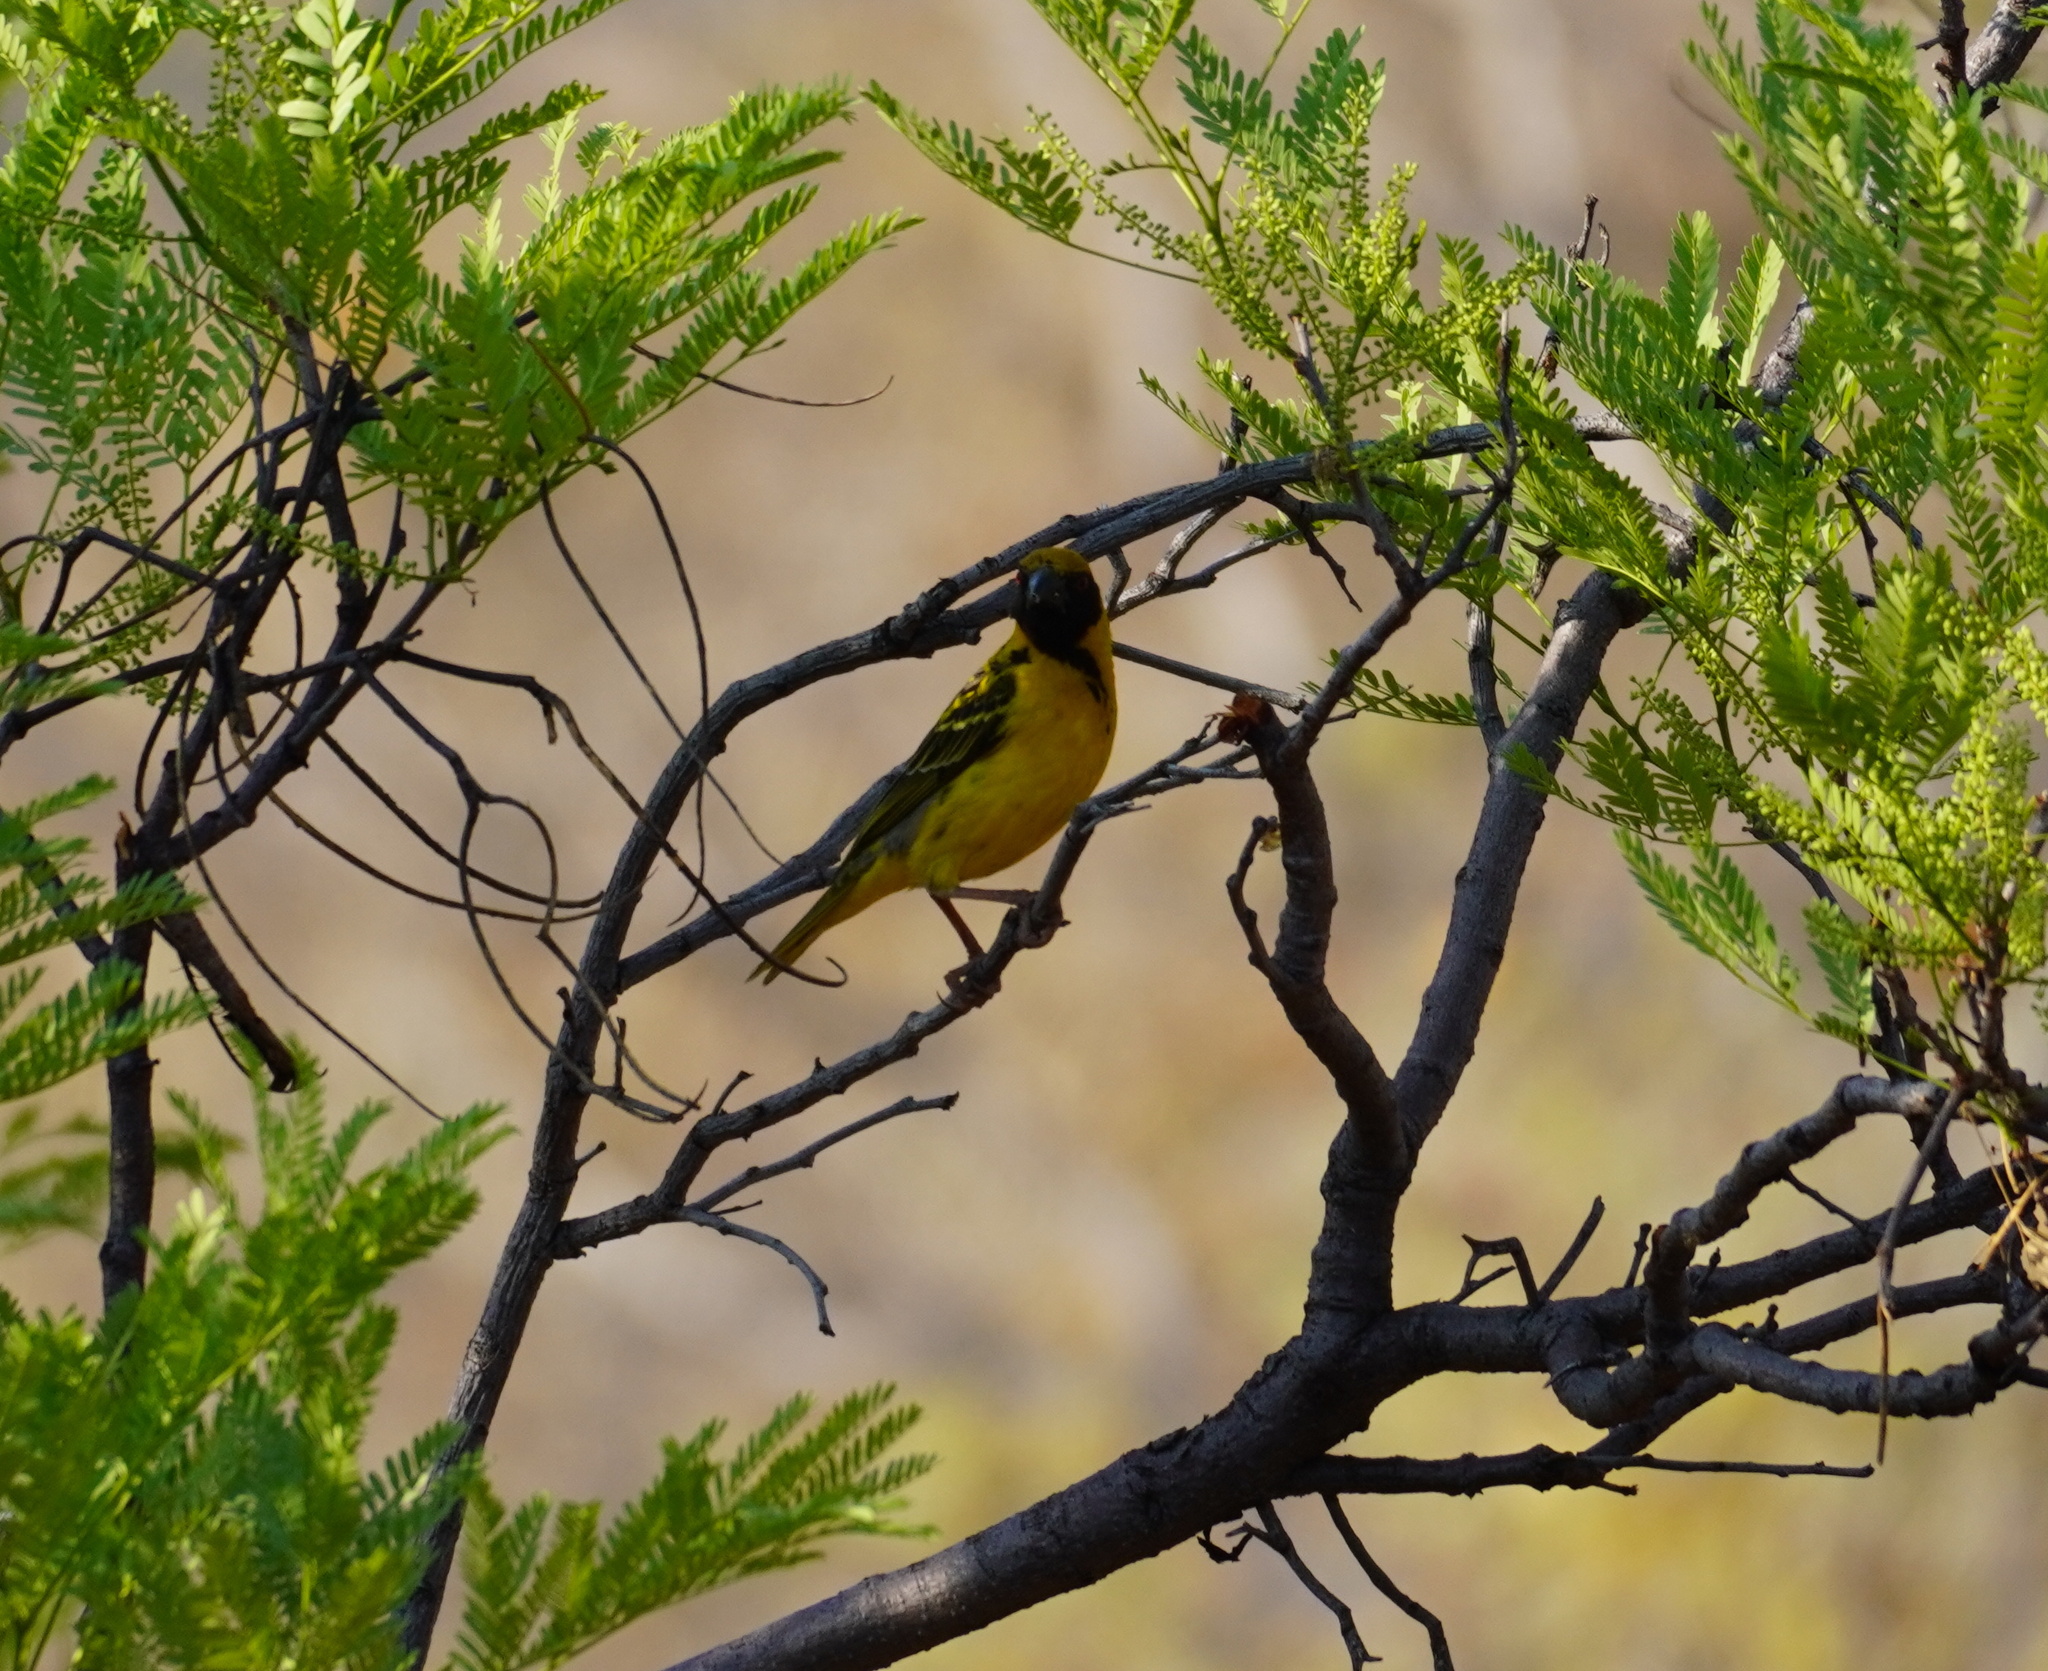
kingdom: Animalia
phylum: Chordata
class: Aves
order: Passeriformes
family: Ploceidae
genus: Ploceus
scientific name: Ploceus cucullatus
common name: Village weaver
